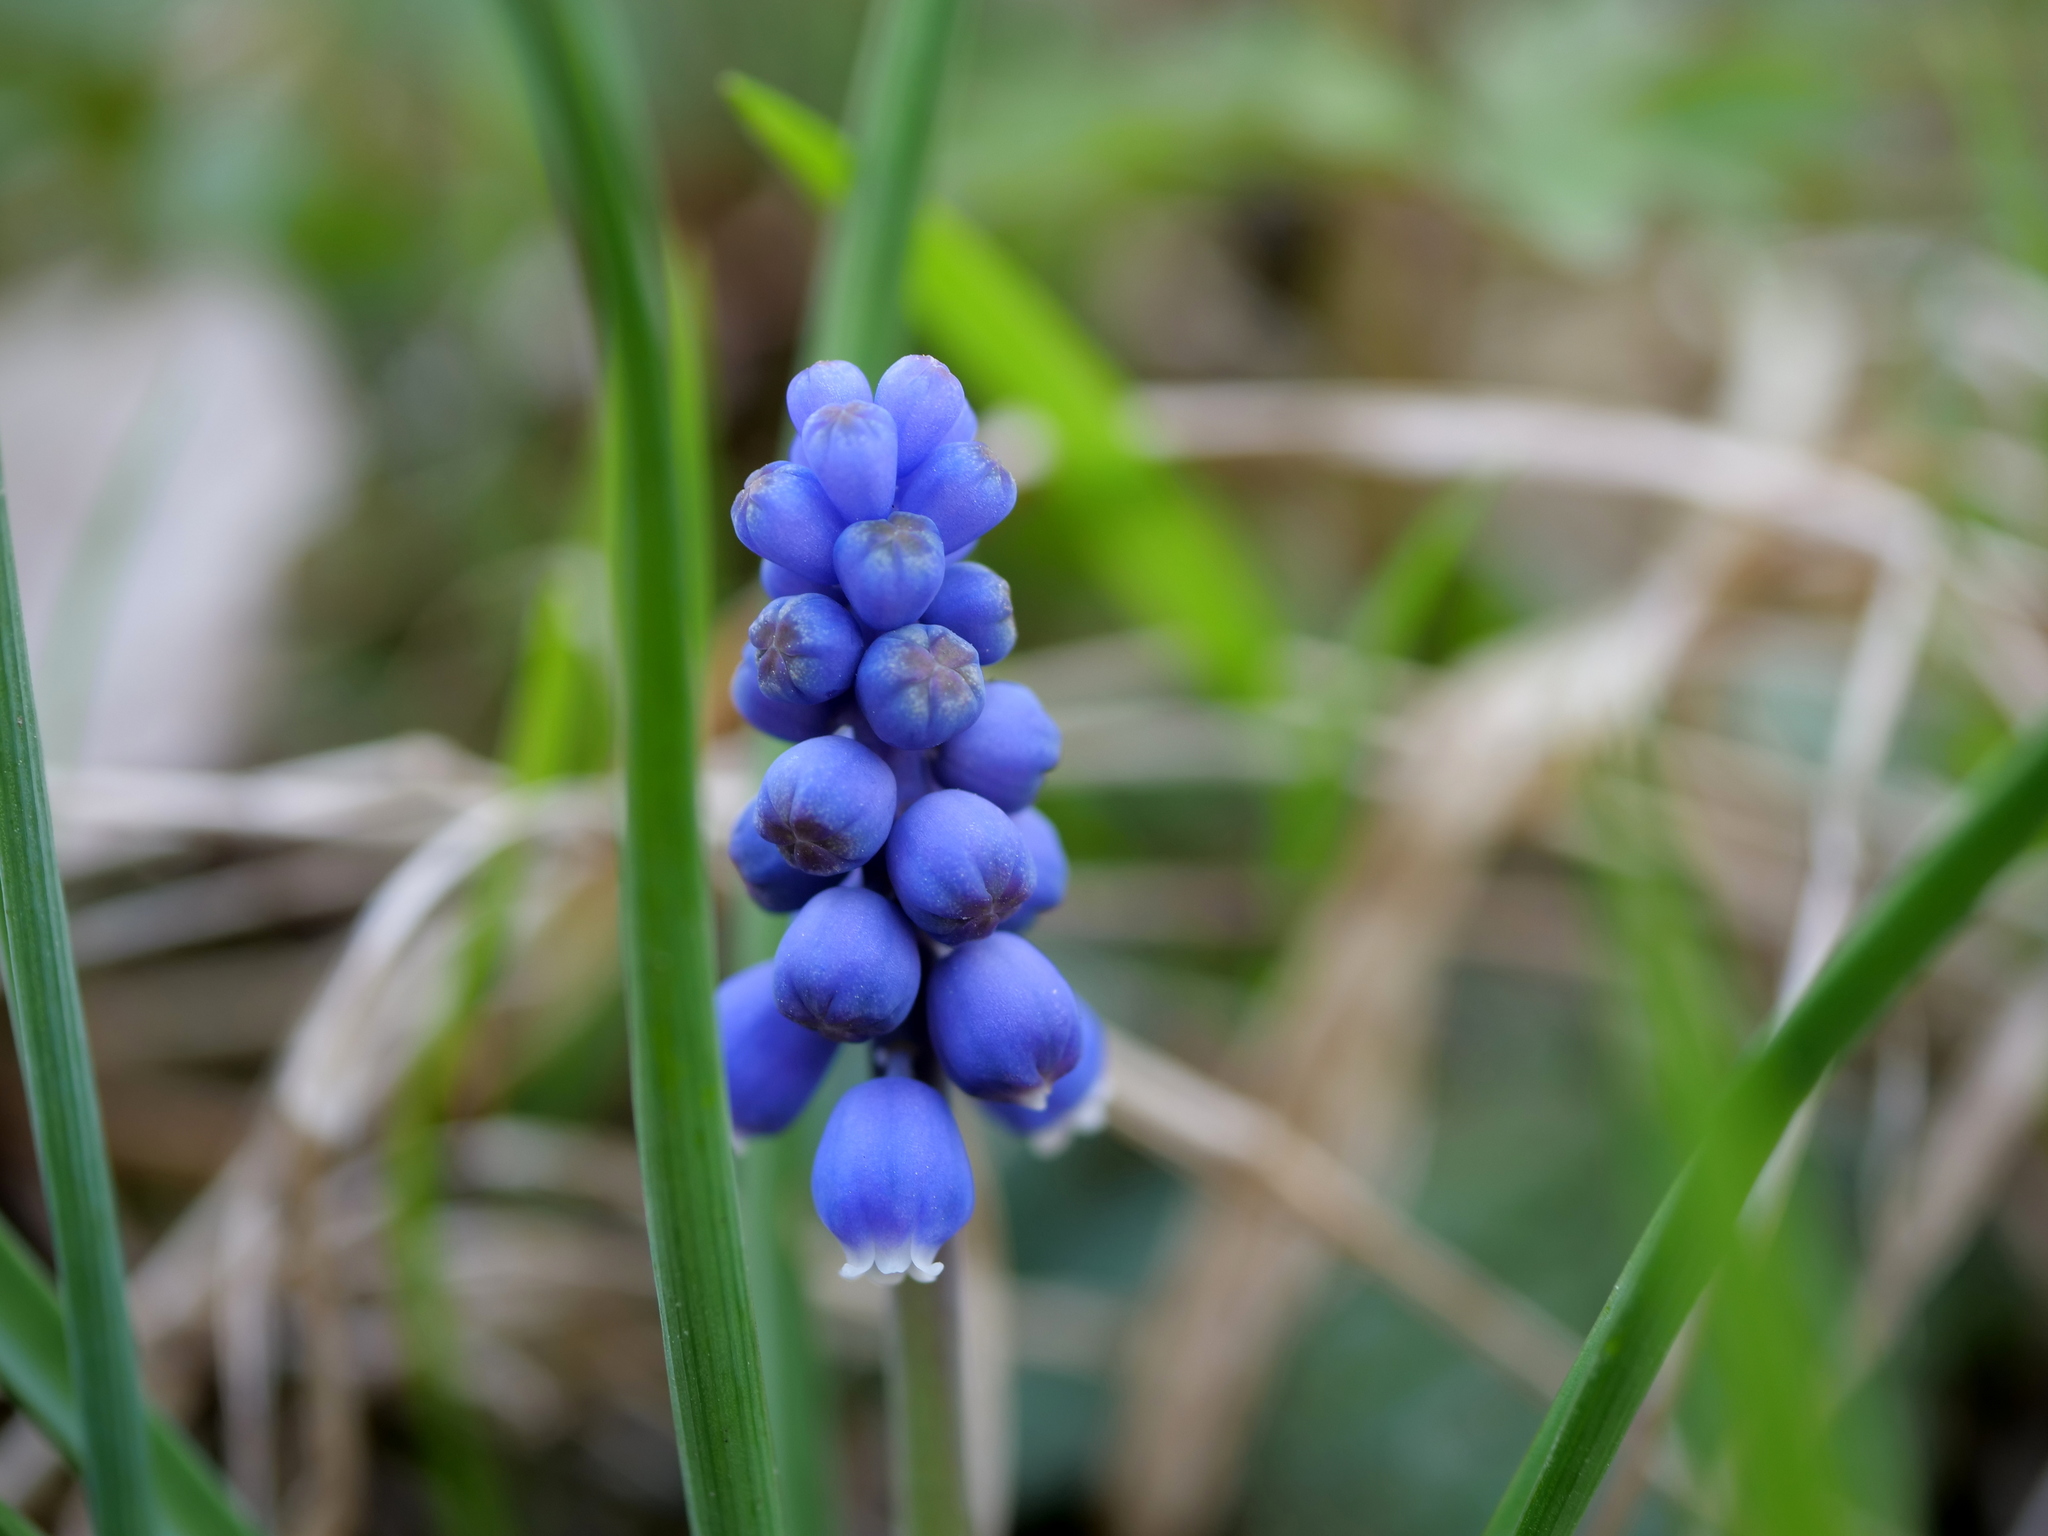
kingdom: Plantae
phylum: Tracheophyta
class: Liliopsida
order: Asparagales
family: Asparagaceae
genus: Muscari
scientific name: Muscari botryoides
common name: Compact grape-hyacinth
